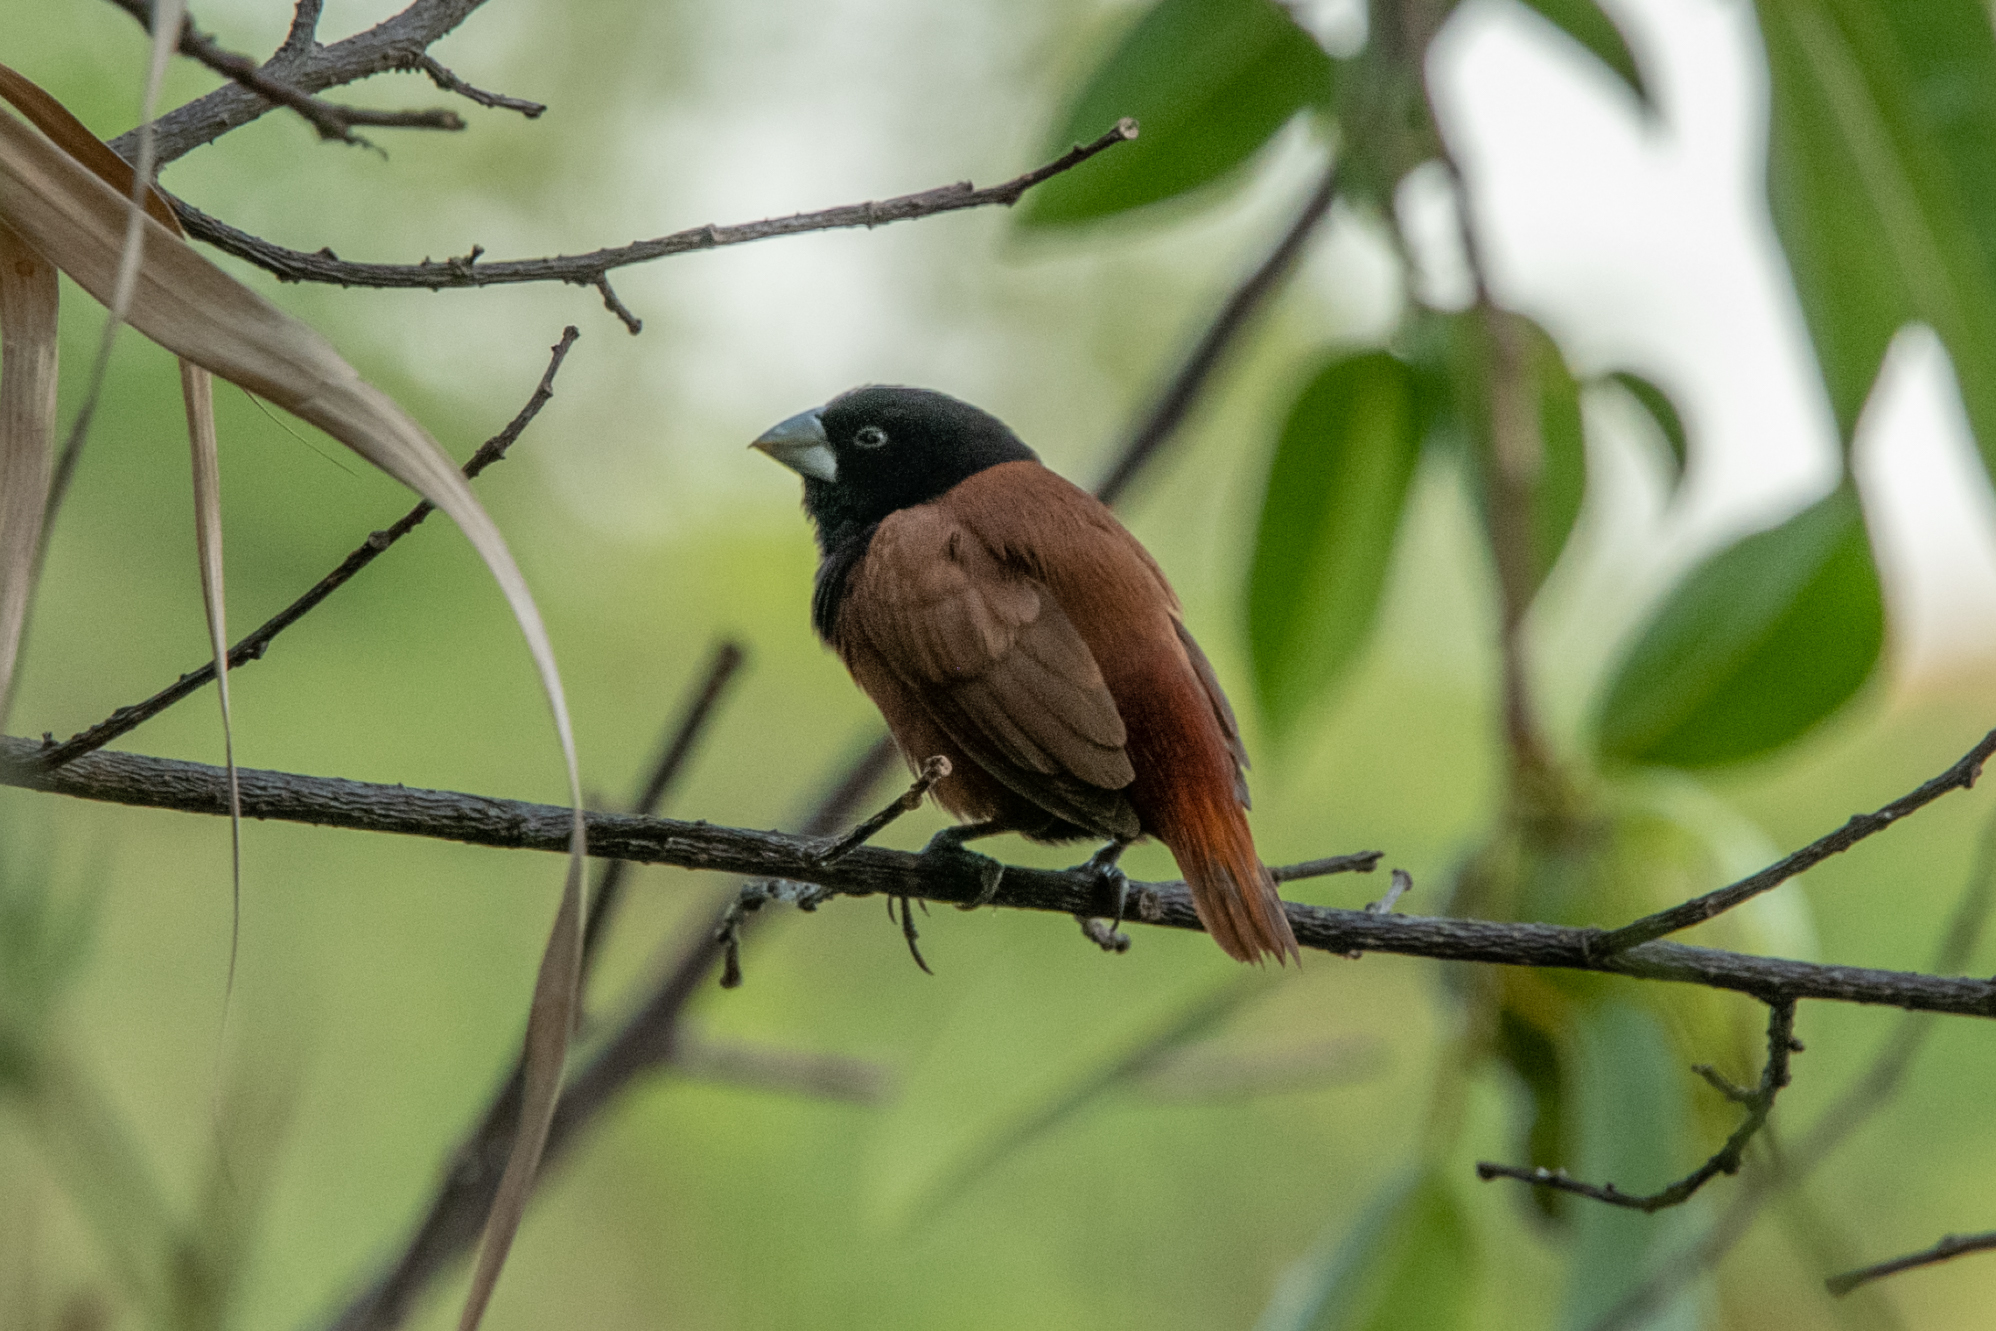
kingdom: Animalia
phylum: Chordata
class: Aves
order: Passeriformes
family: Estrildidae
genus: Lonchura
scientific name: Lonchura atricapilla
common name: Chestnut munia
